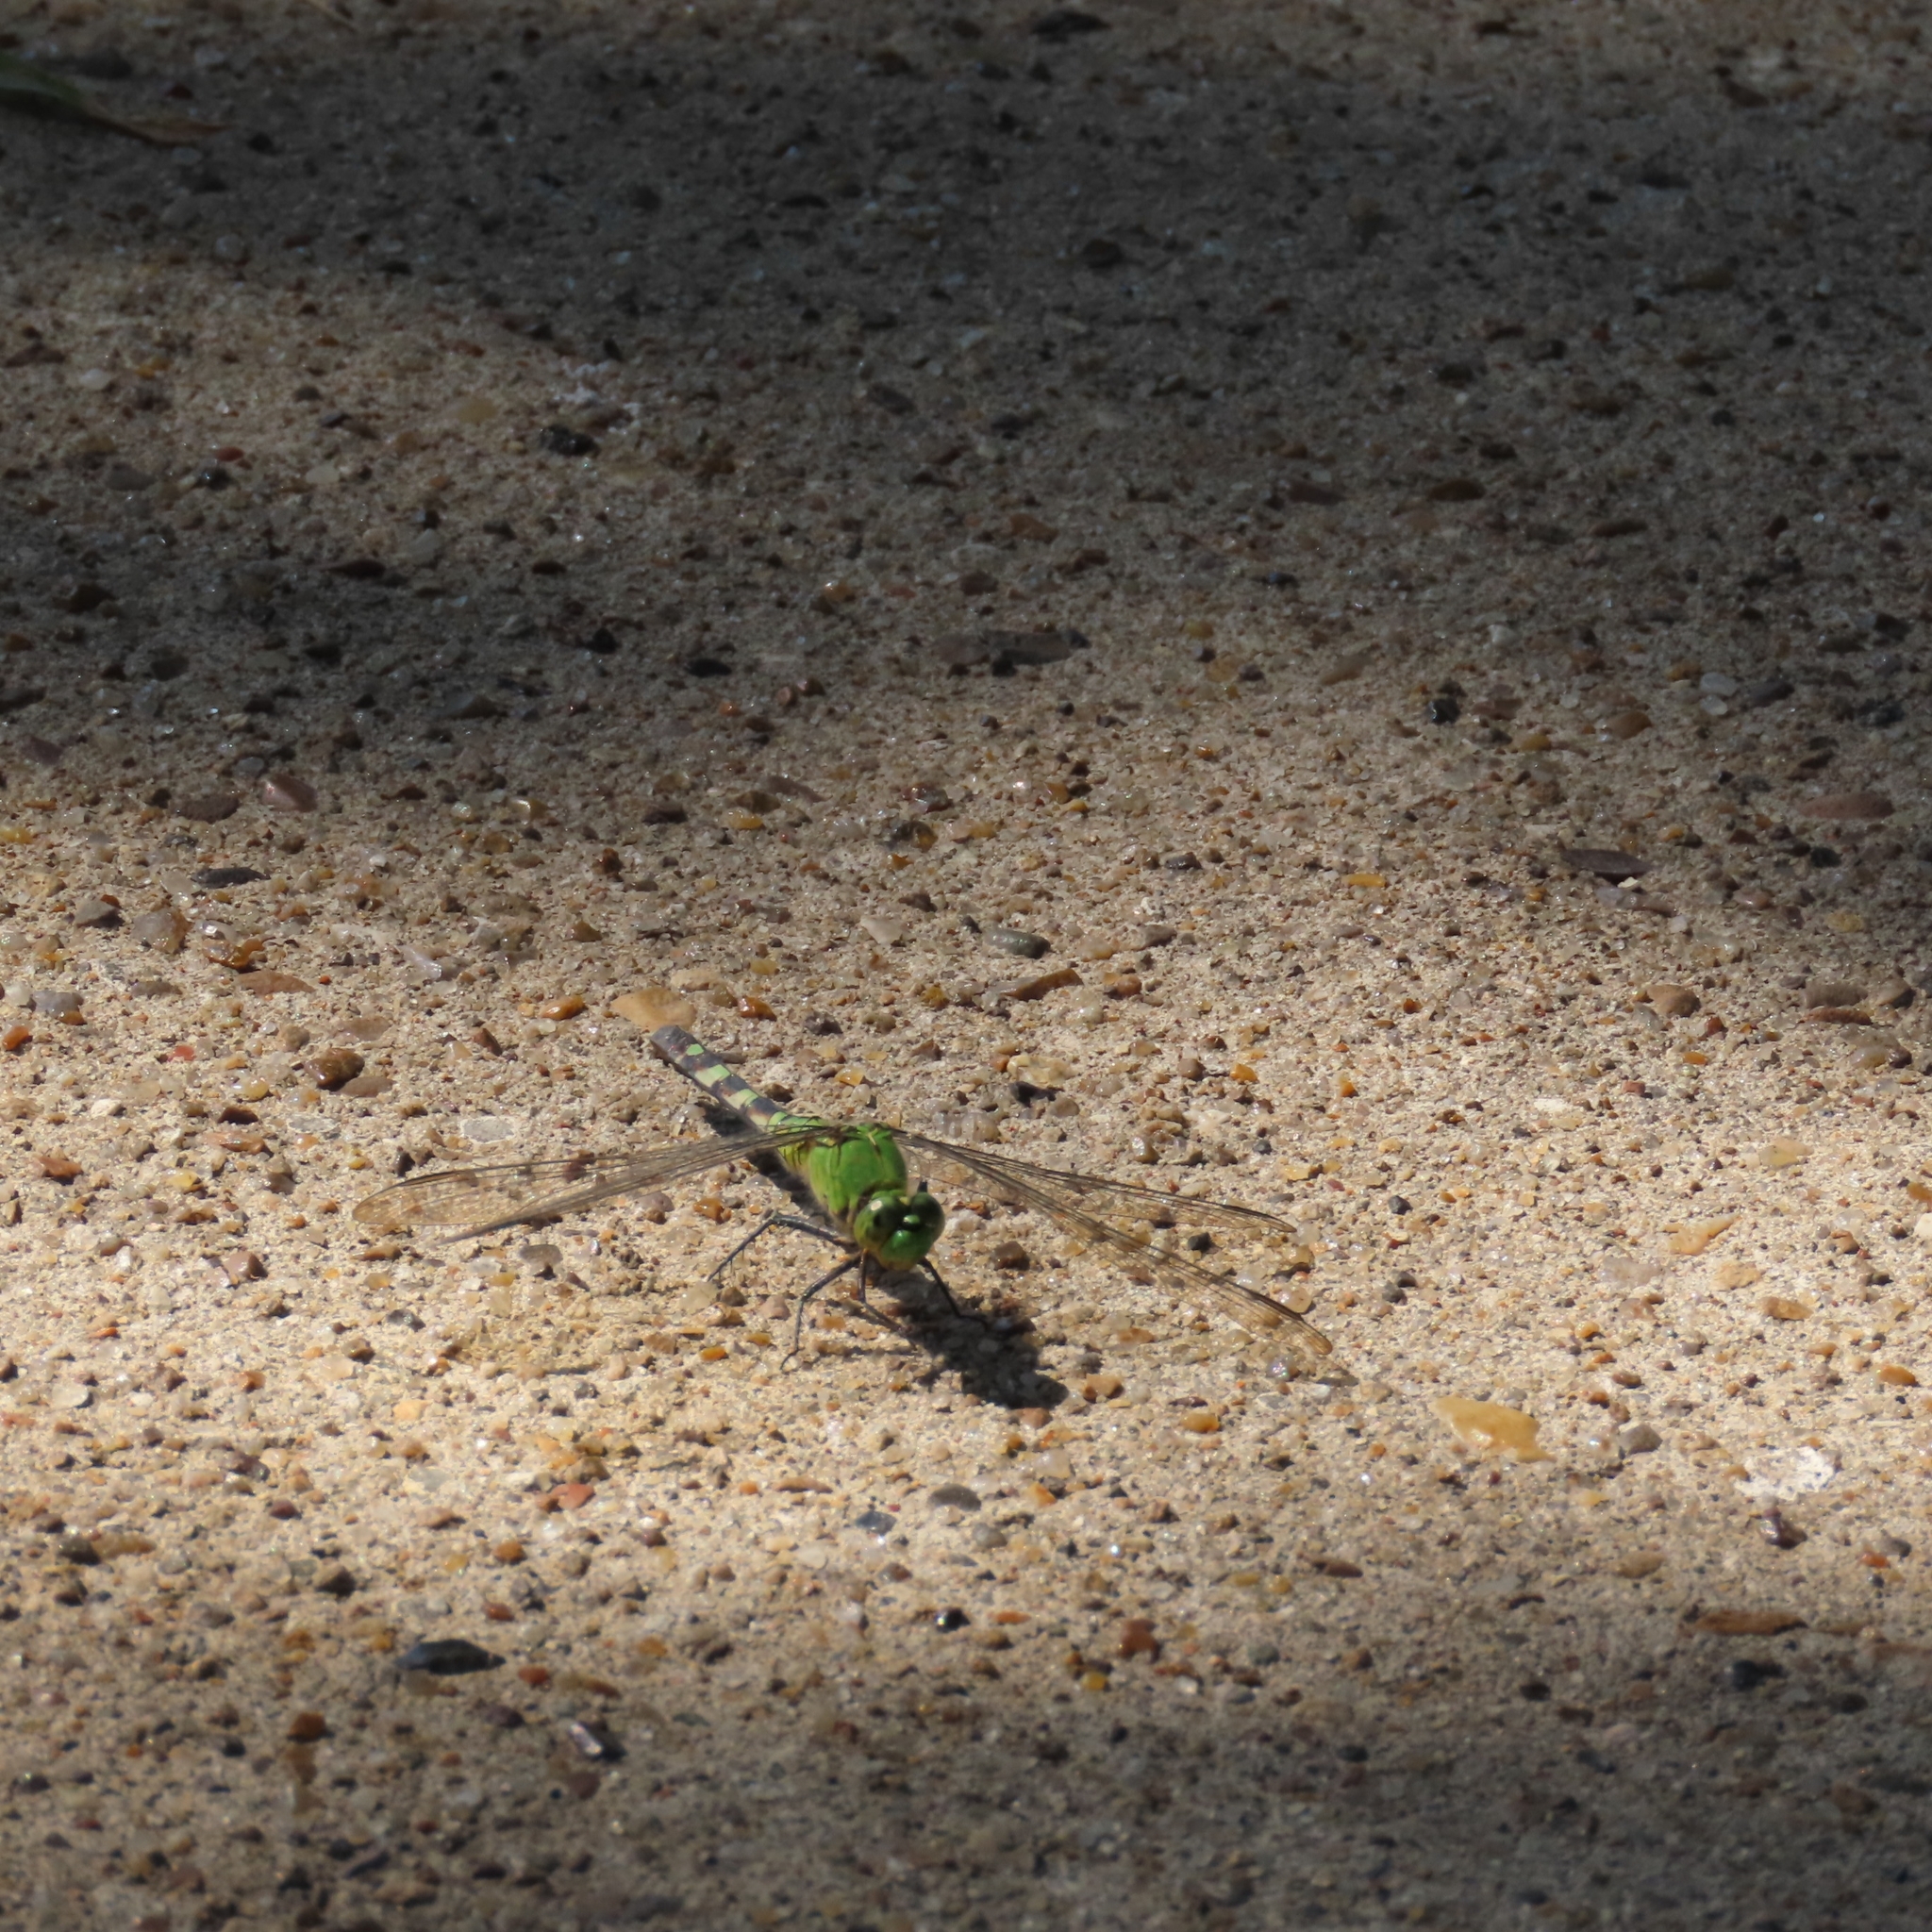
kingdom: Animalia
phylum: Arthropoda
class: Insecta
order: Odonata
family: Libellulidae
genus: Erythemis
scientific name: Erythemis simplicicollis
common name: Eastern pondhawk
